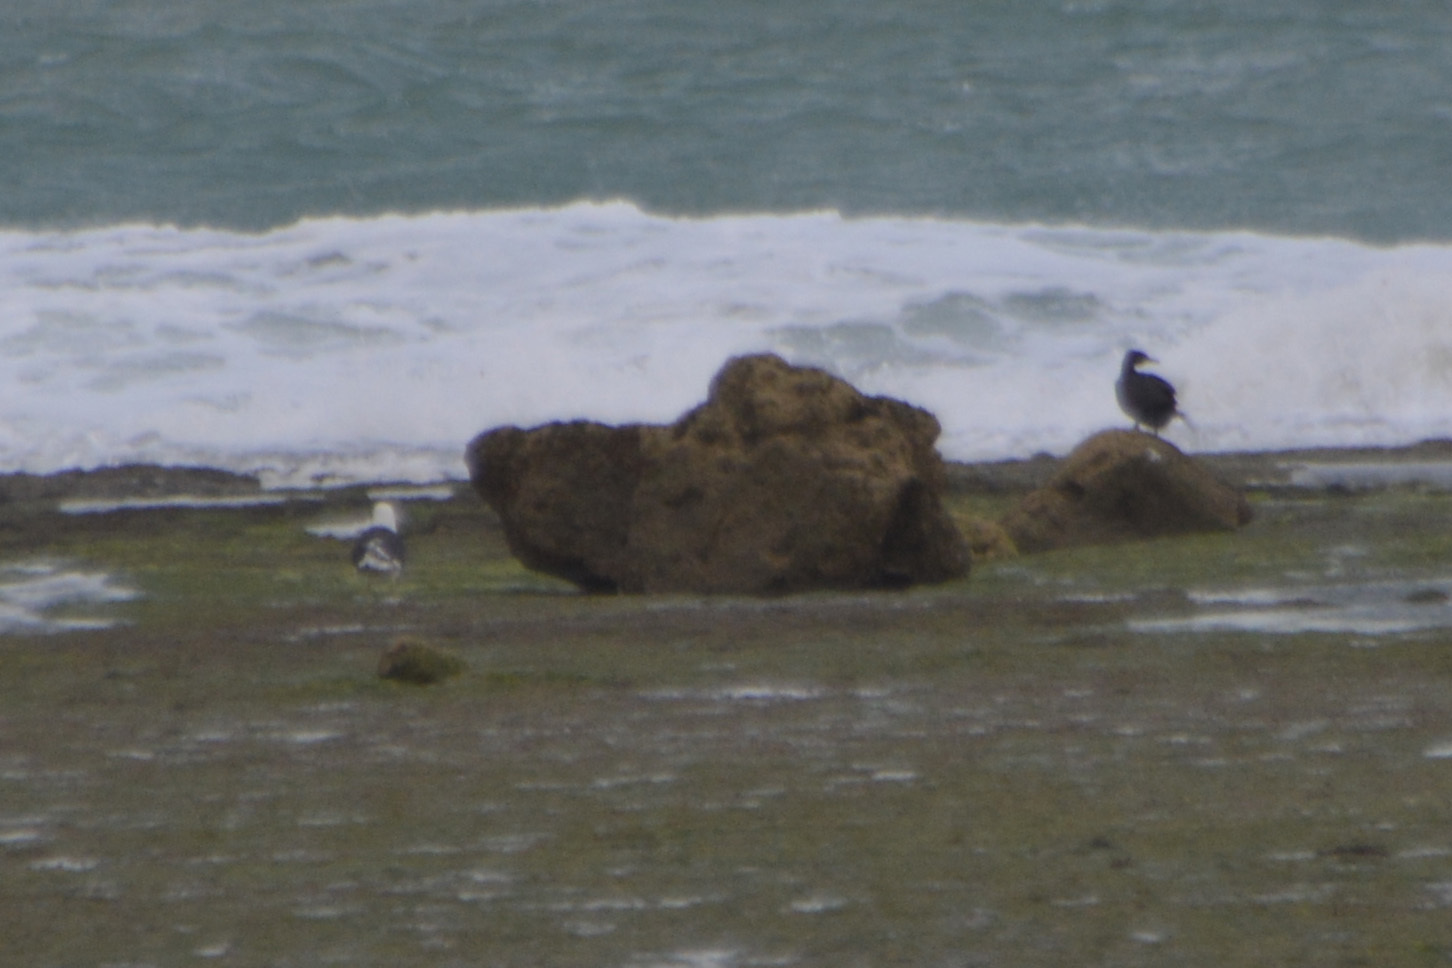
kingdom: Animalia
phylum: Chordata
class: Aves
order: Suliformes
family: Phalacrocoracidae
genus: Phalacrocorax
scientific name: Phalacrocorax brasilianus
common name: Neotropic cormorant
